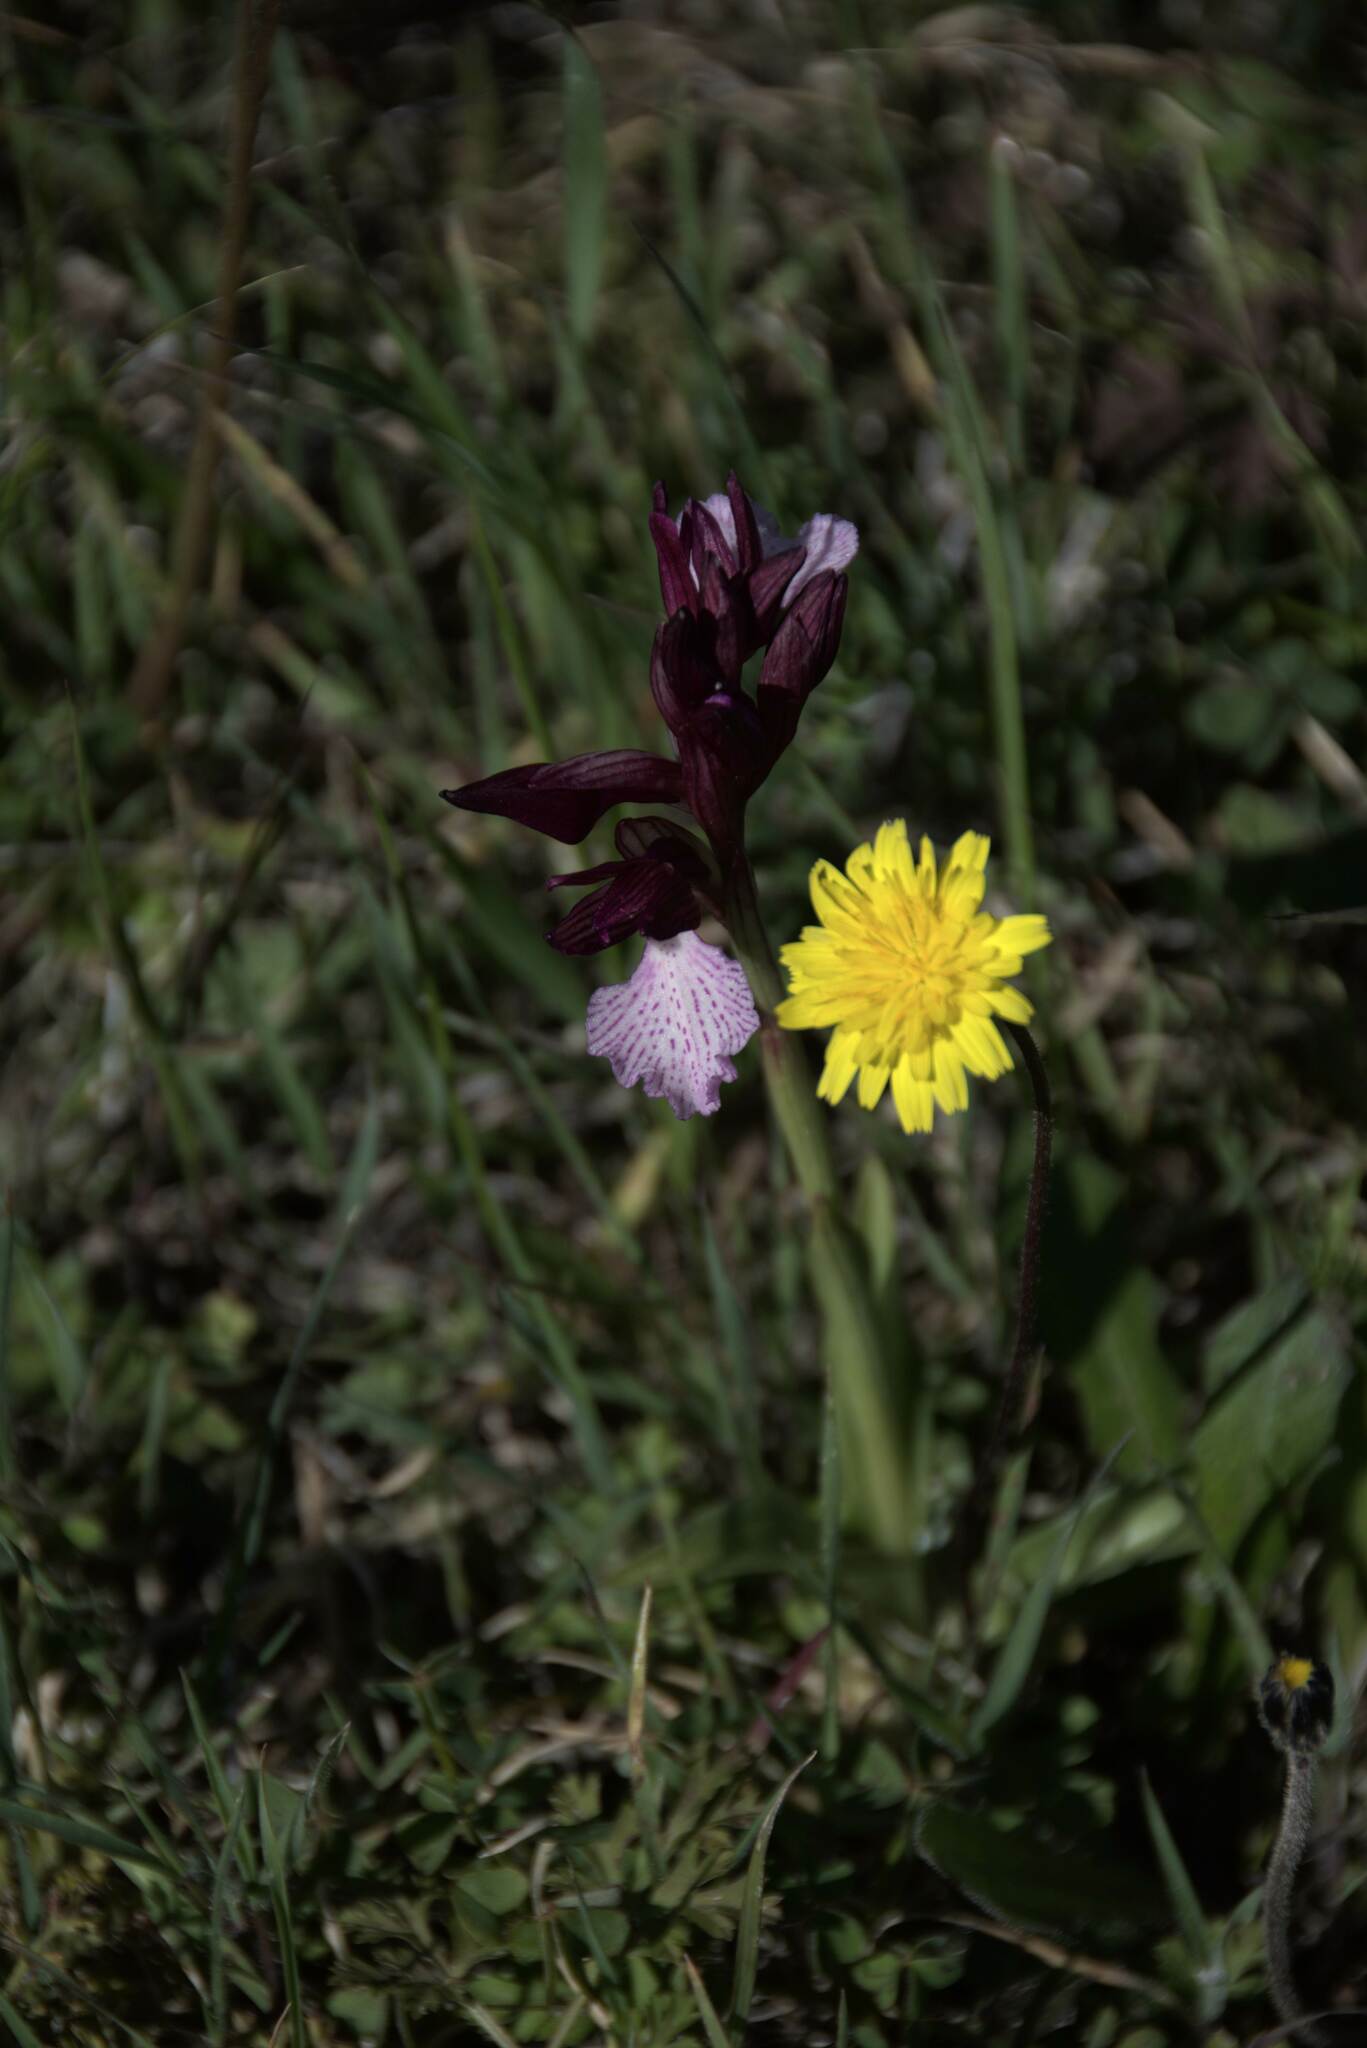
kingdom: Plantae
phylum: Tracheophyta
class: Liliopsida
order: Asparagales
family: Orchidaceae
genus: Anacamptis
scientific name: Anacamptis papilionacea
